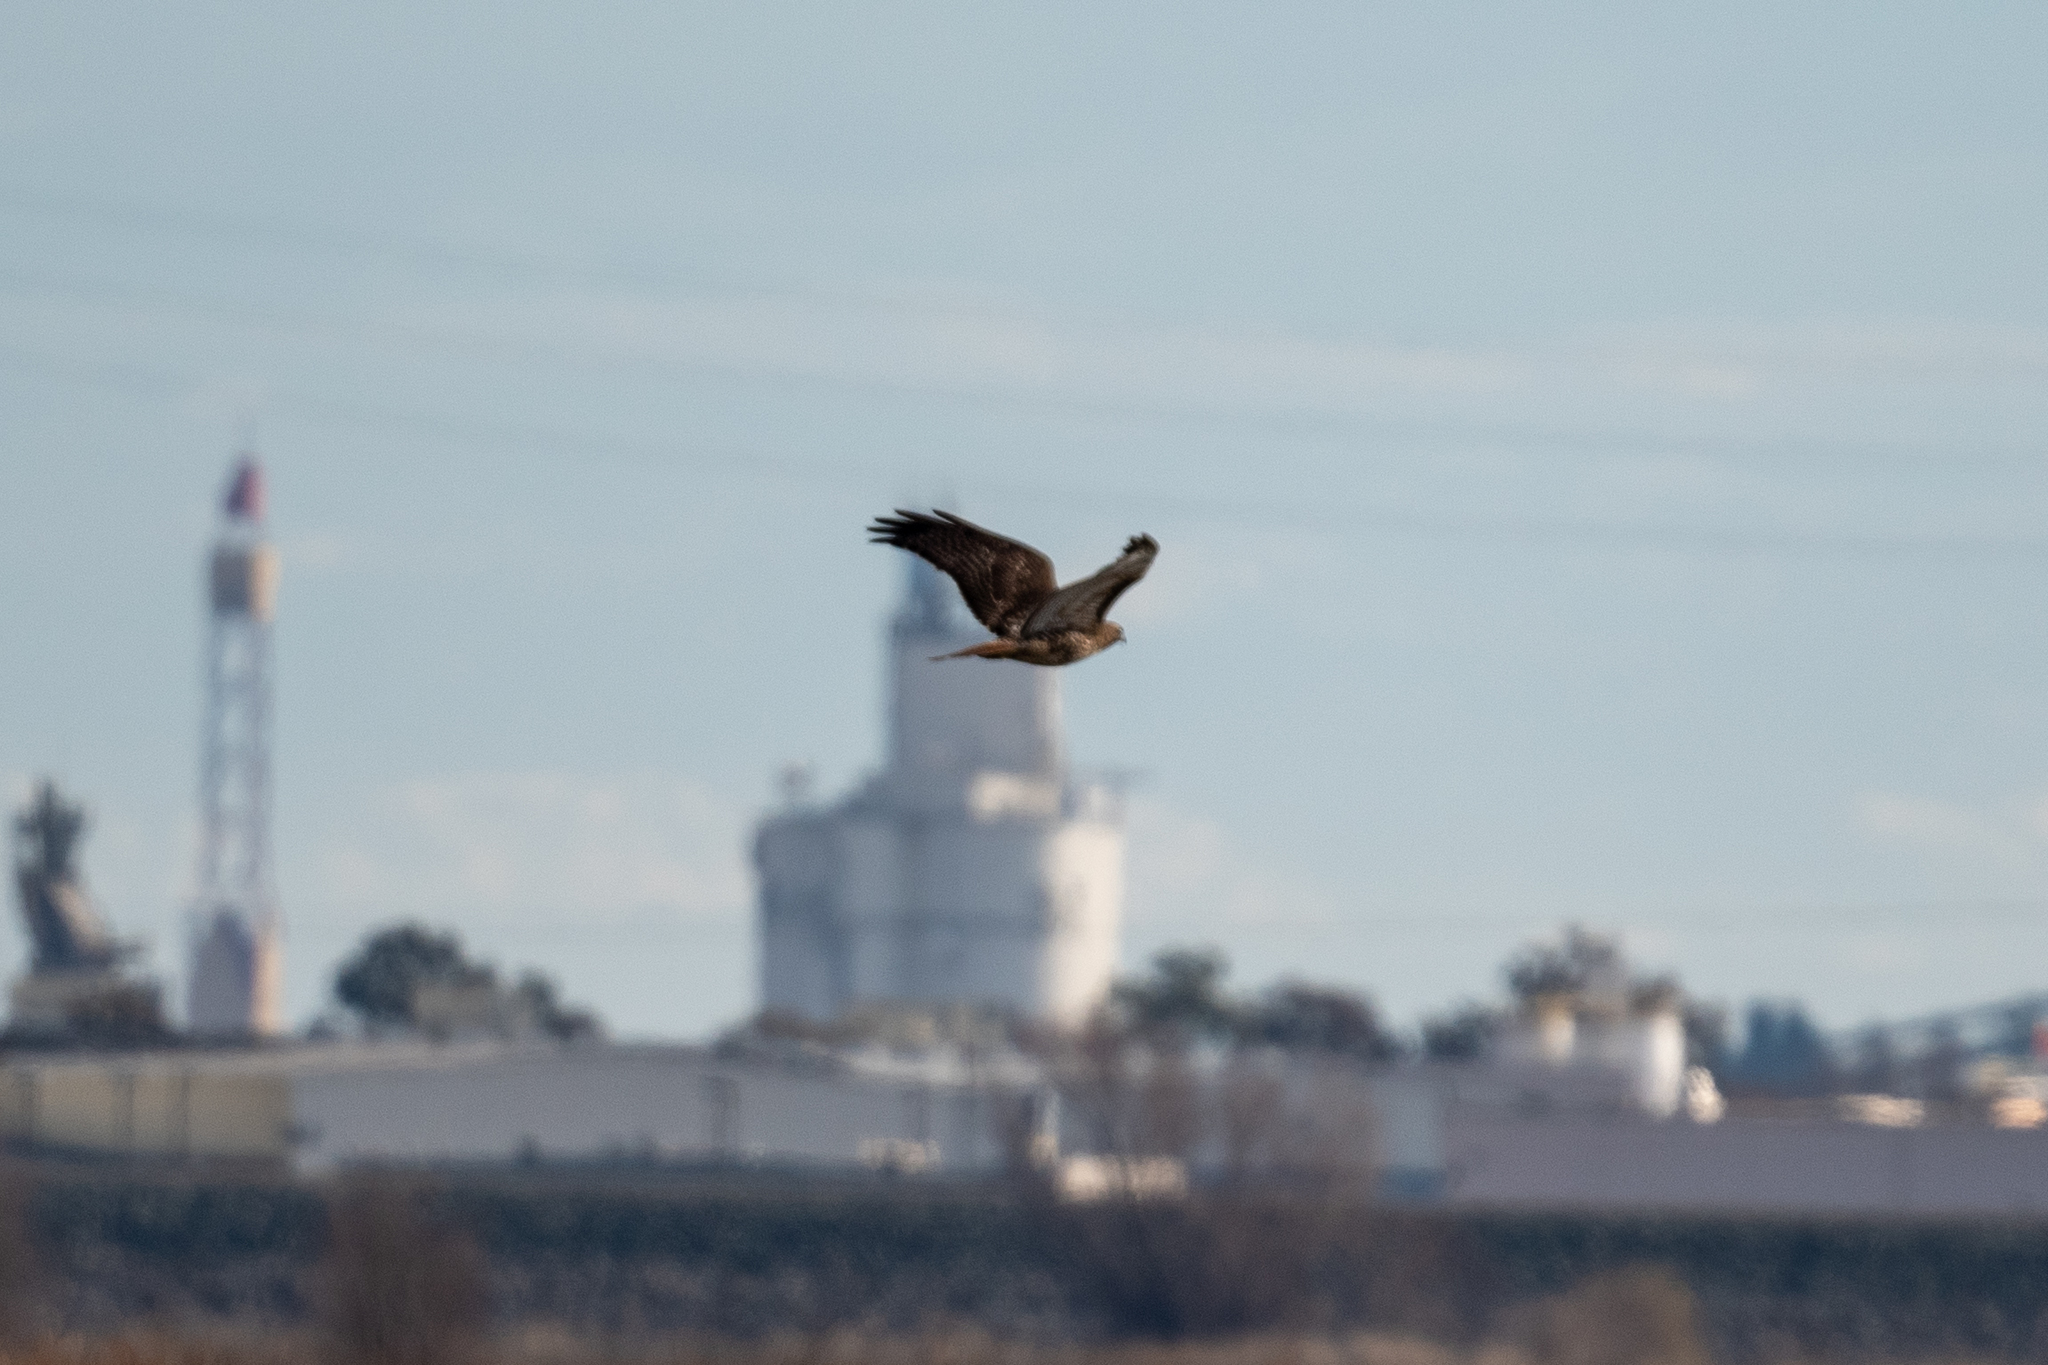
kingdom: Animalia
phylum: Chordata
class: Aves
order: Accipitriformes
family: Accipitridae
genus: Buteo
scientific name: Buteo jamaicensis
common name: Red-tailed hawk
